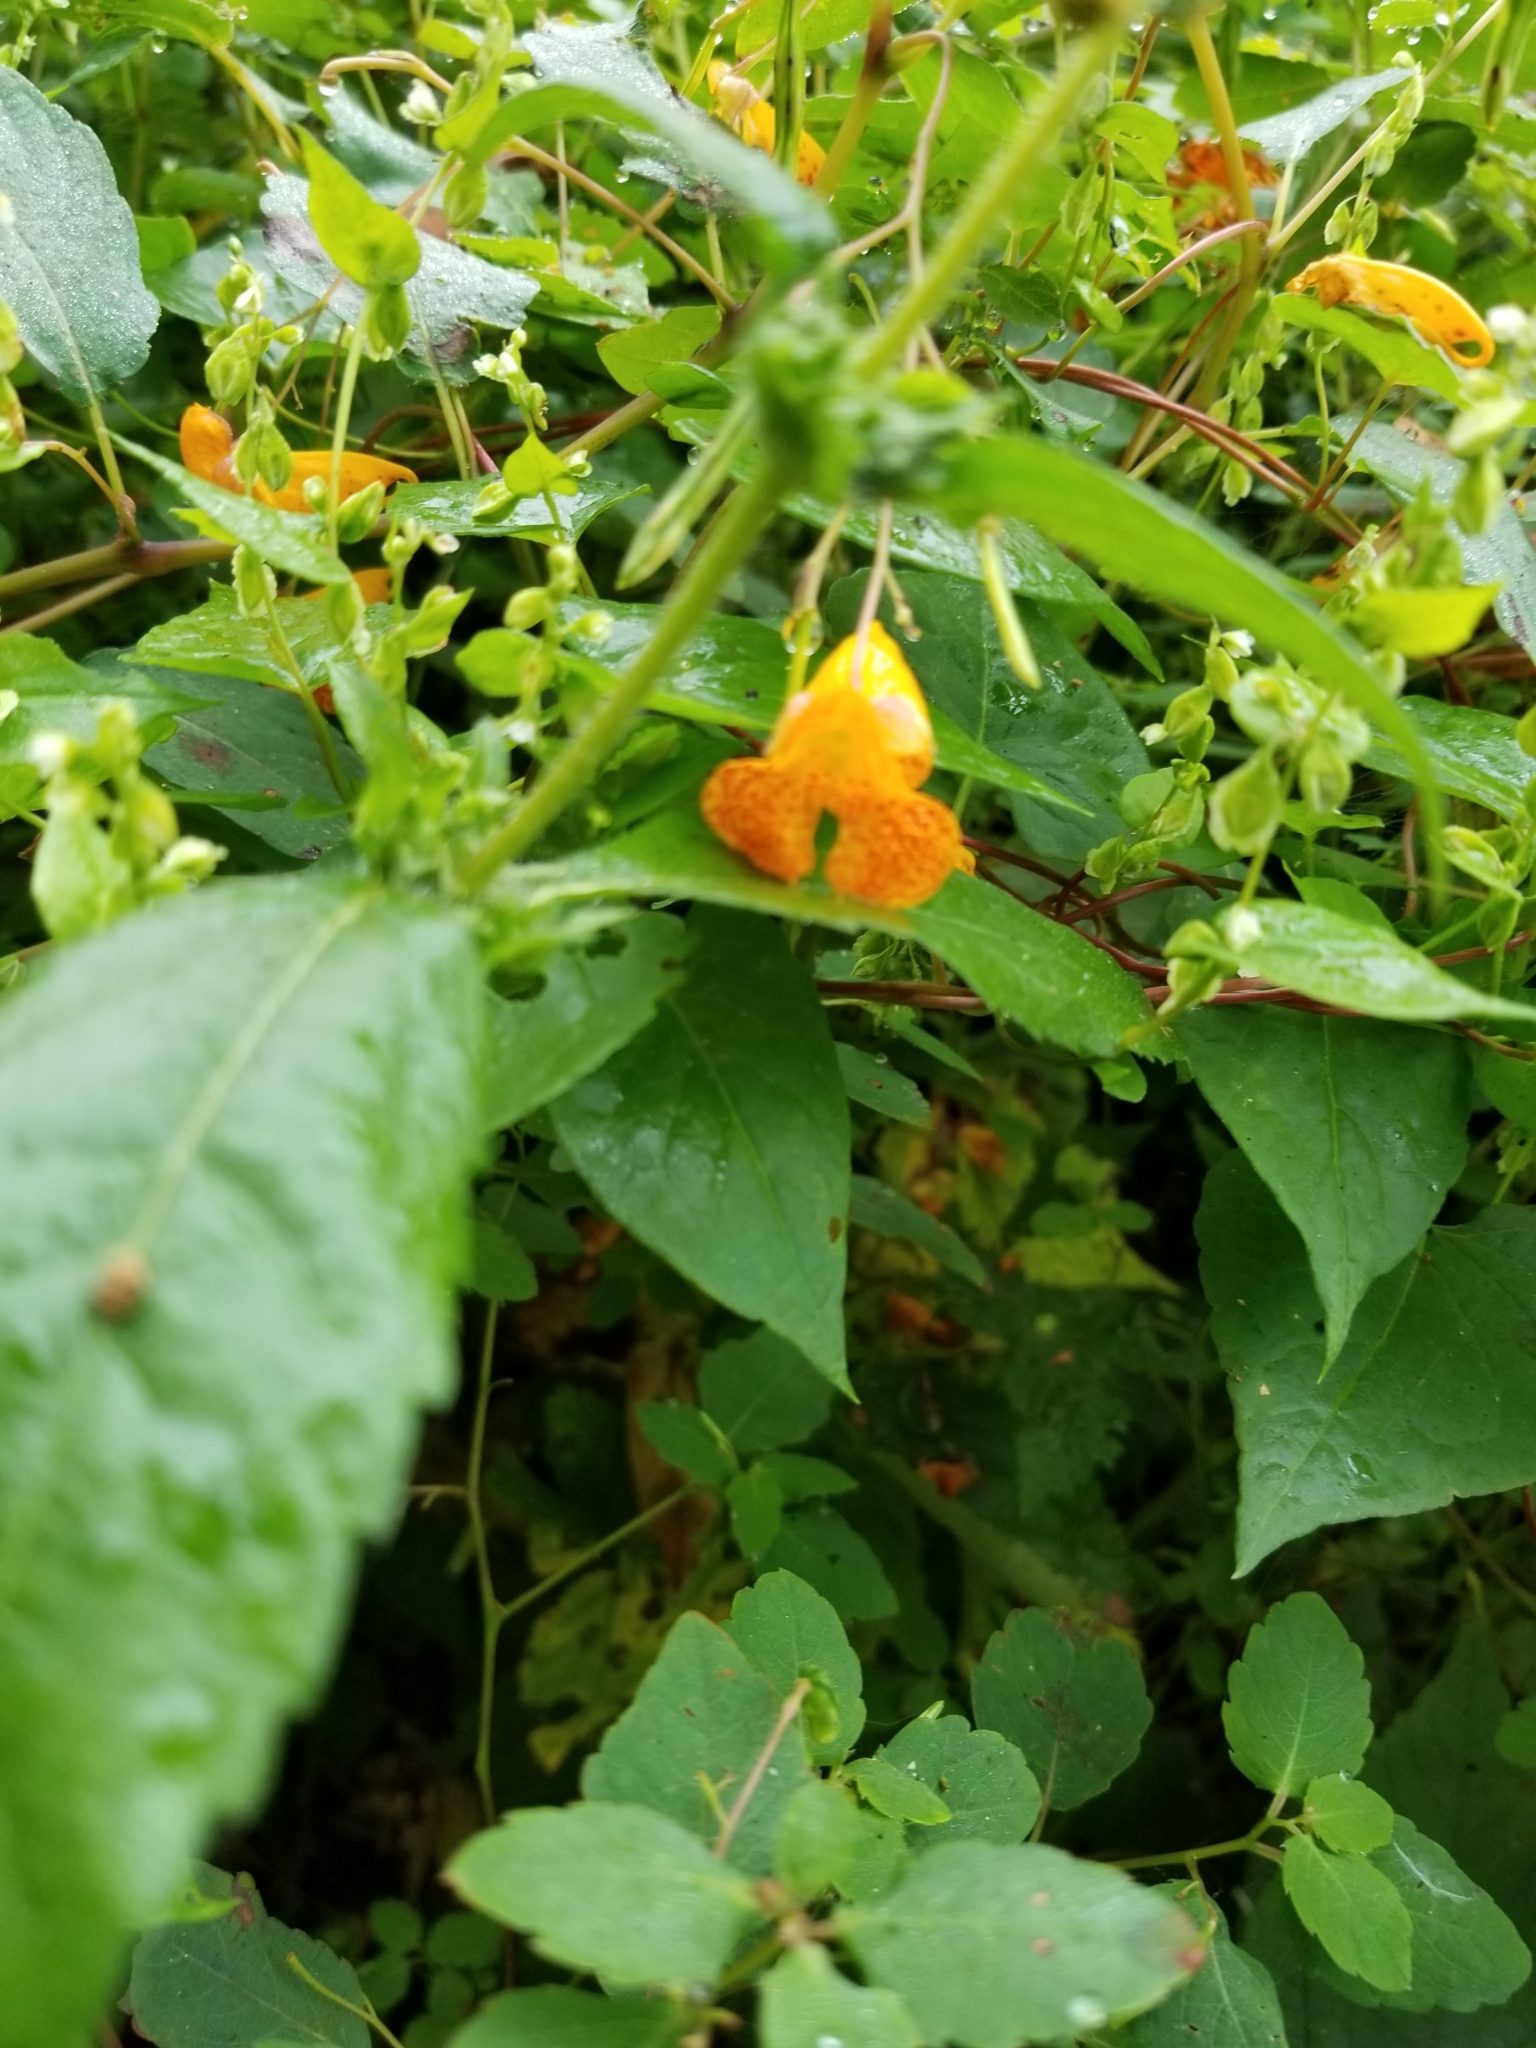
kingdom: Plantae
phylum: Tracheophyta
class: Magnoliopsida
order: Ericales
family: Balsaminaceae
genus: Impatiens
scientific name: Impatiens capensis
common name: Orange balsam
